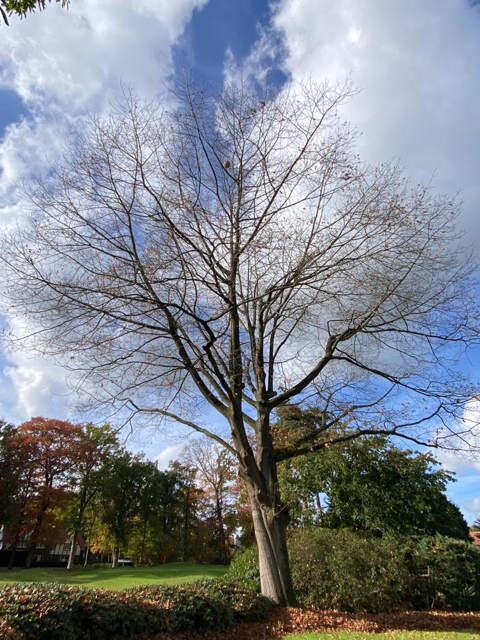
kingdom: Animalia
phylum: Arthropoda
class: Insecta
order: Hymenoptera
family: Vespidae
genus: Vespa
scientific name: Vespa velutina
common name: Asian hornet
